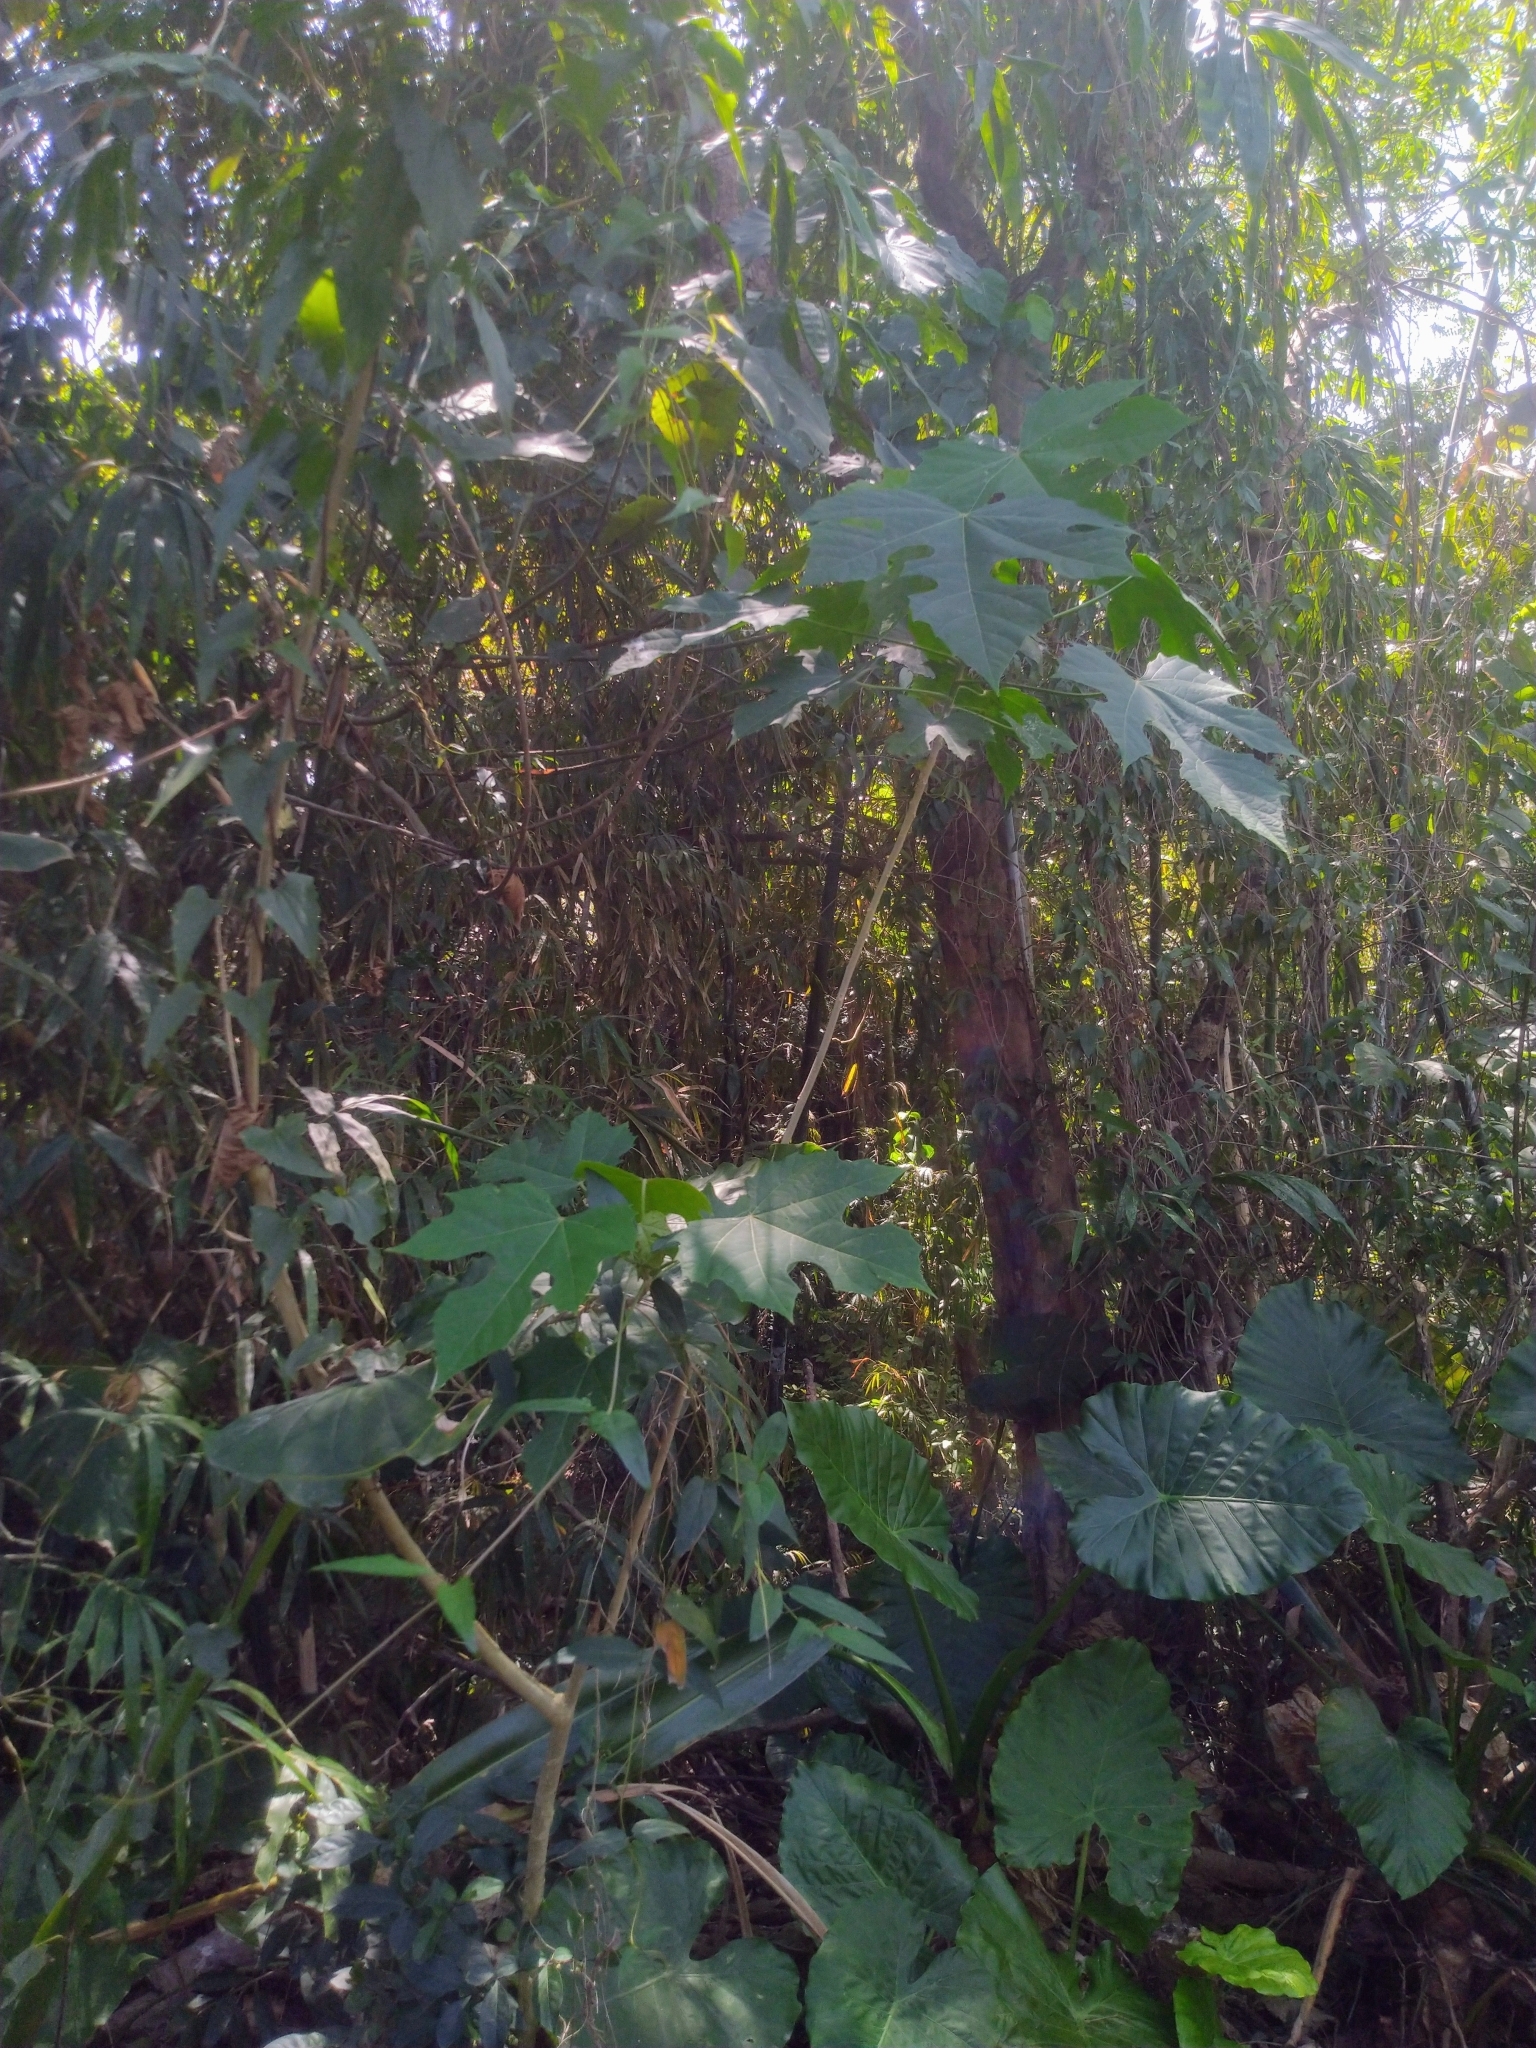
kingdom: Plantae
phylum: Tracheophyta
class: Magnoliopsida
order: Malpighiales
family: Euphorbiaceae
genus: Melanolepis
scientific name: Melanolepis multiglandulosa
